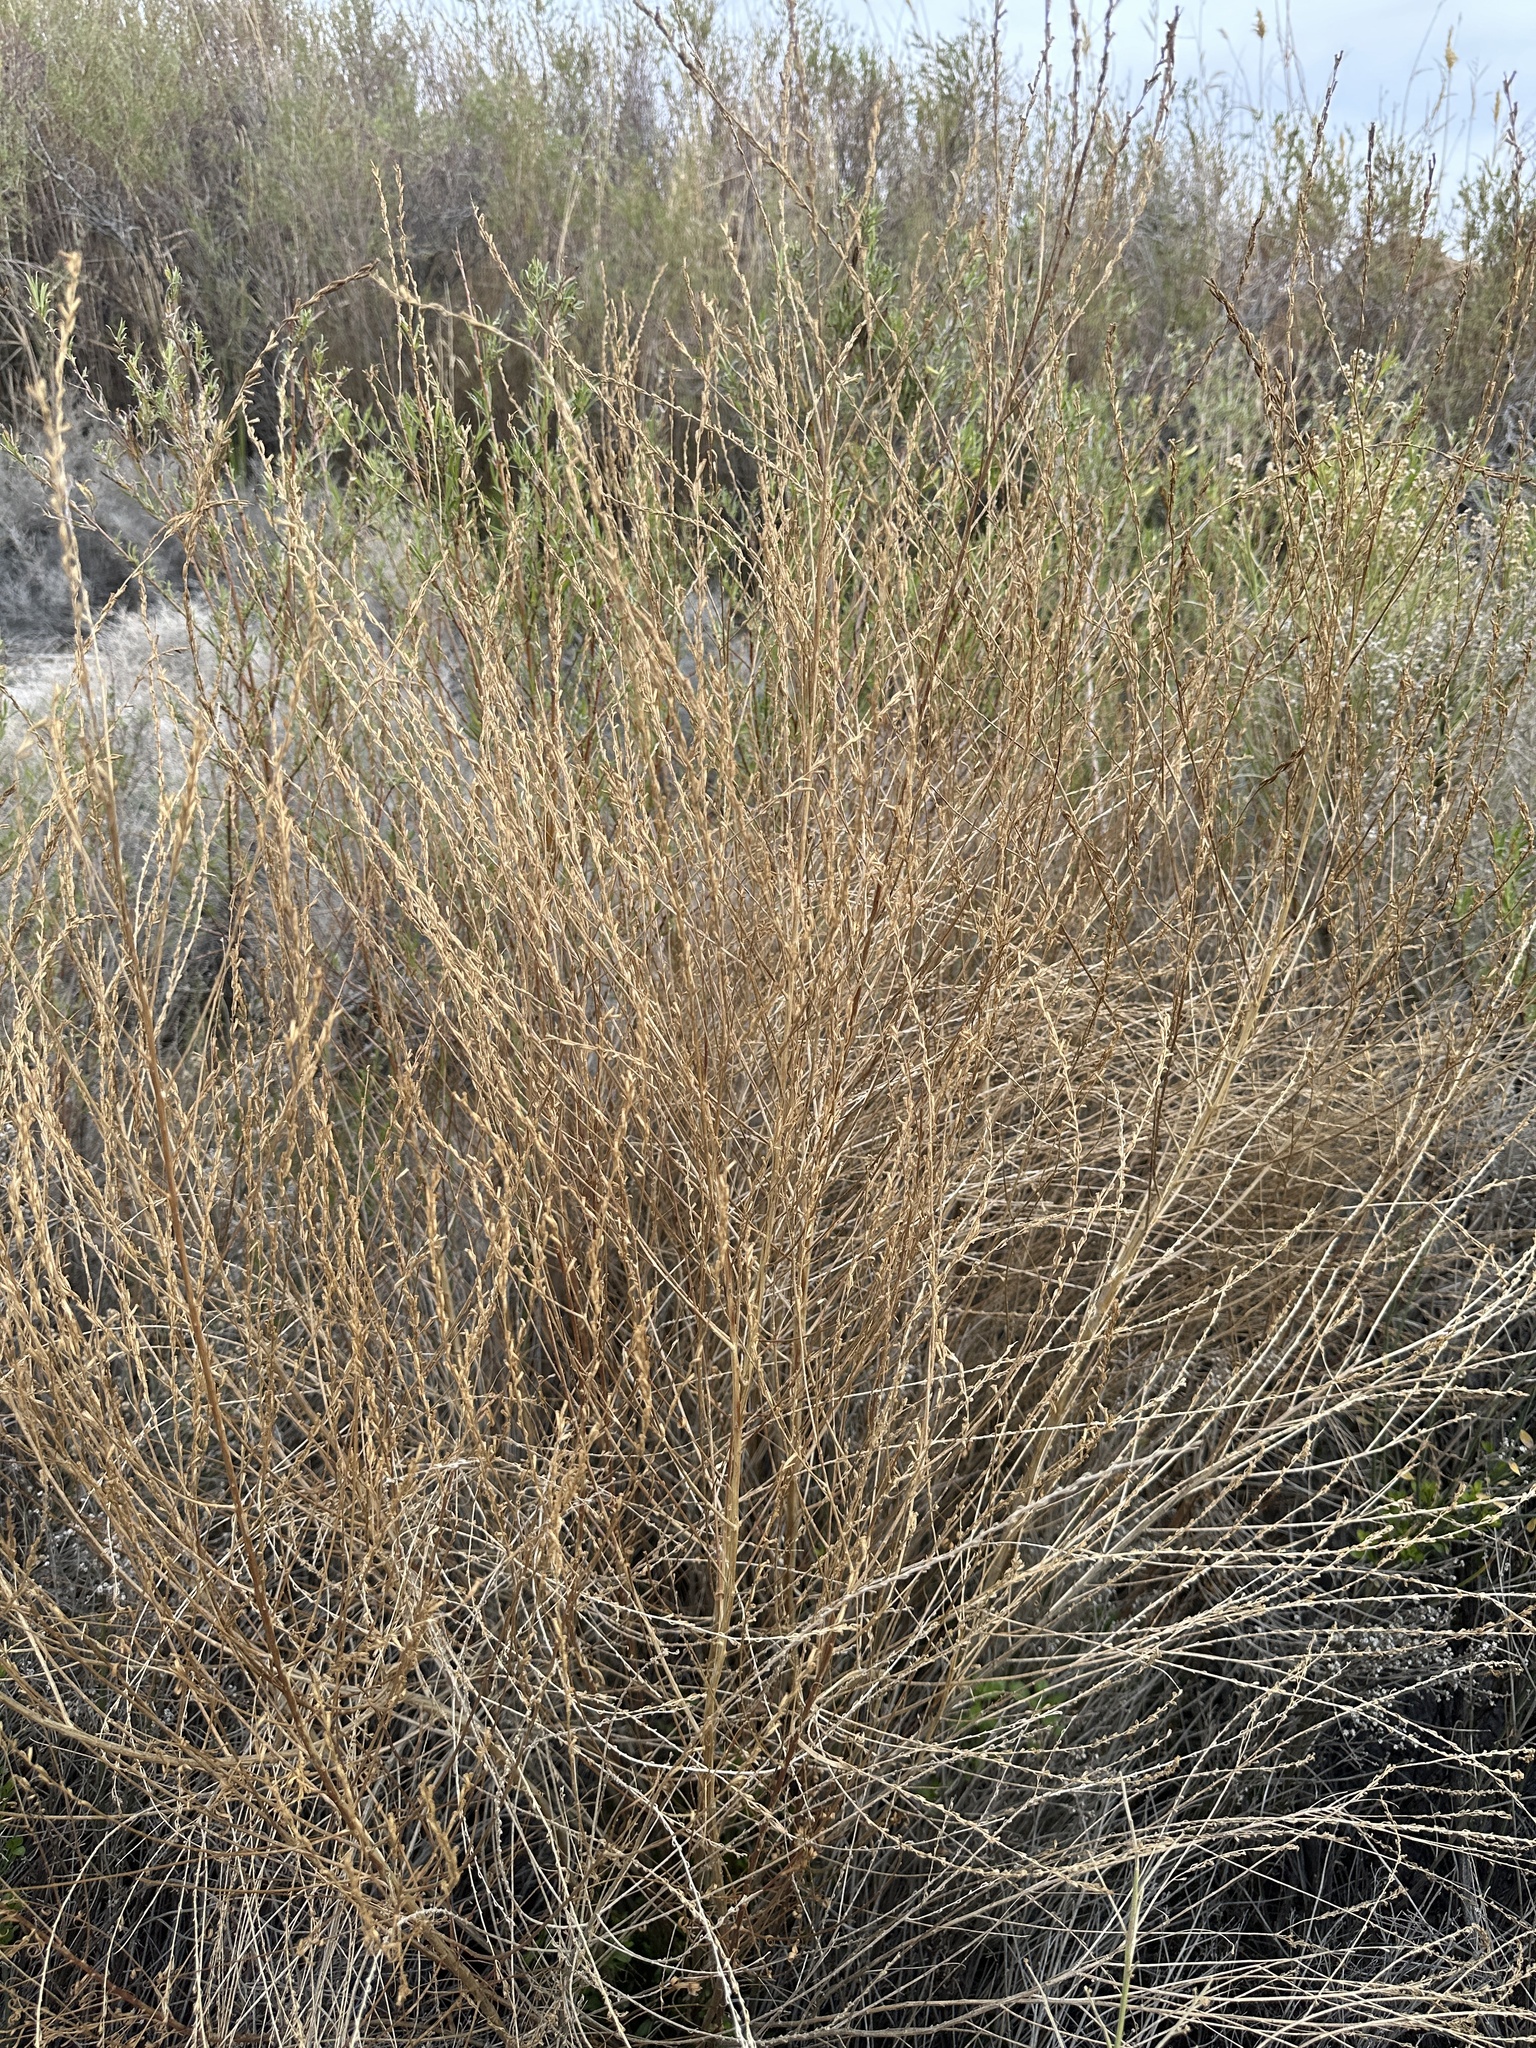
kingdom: Plantae
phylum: Tracheophyta
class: Magnoliopsida
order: Myrtales
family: Lythraceae
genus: Lythrum
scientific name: Lythrum californicum
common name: California loosestrife
